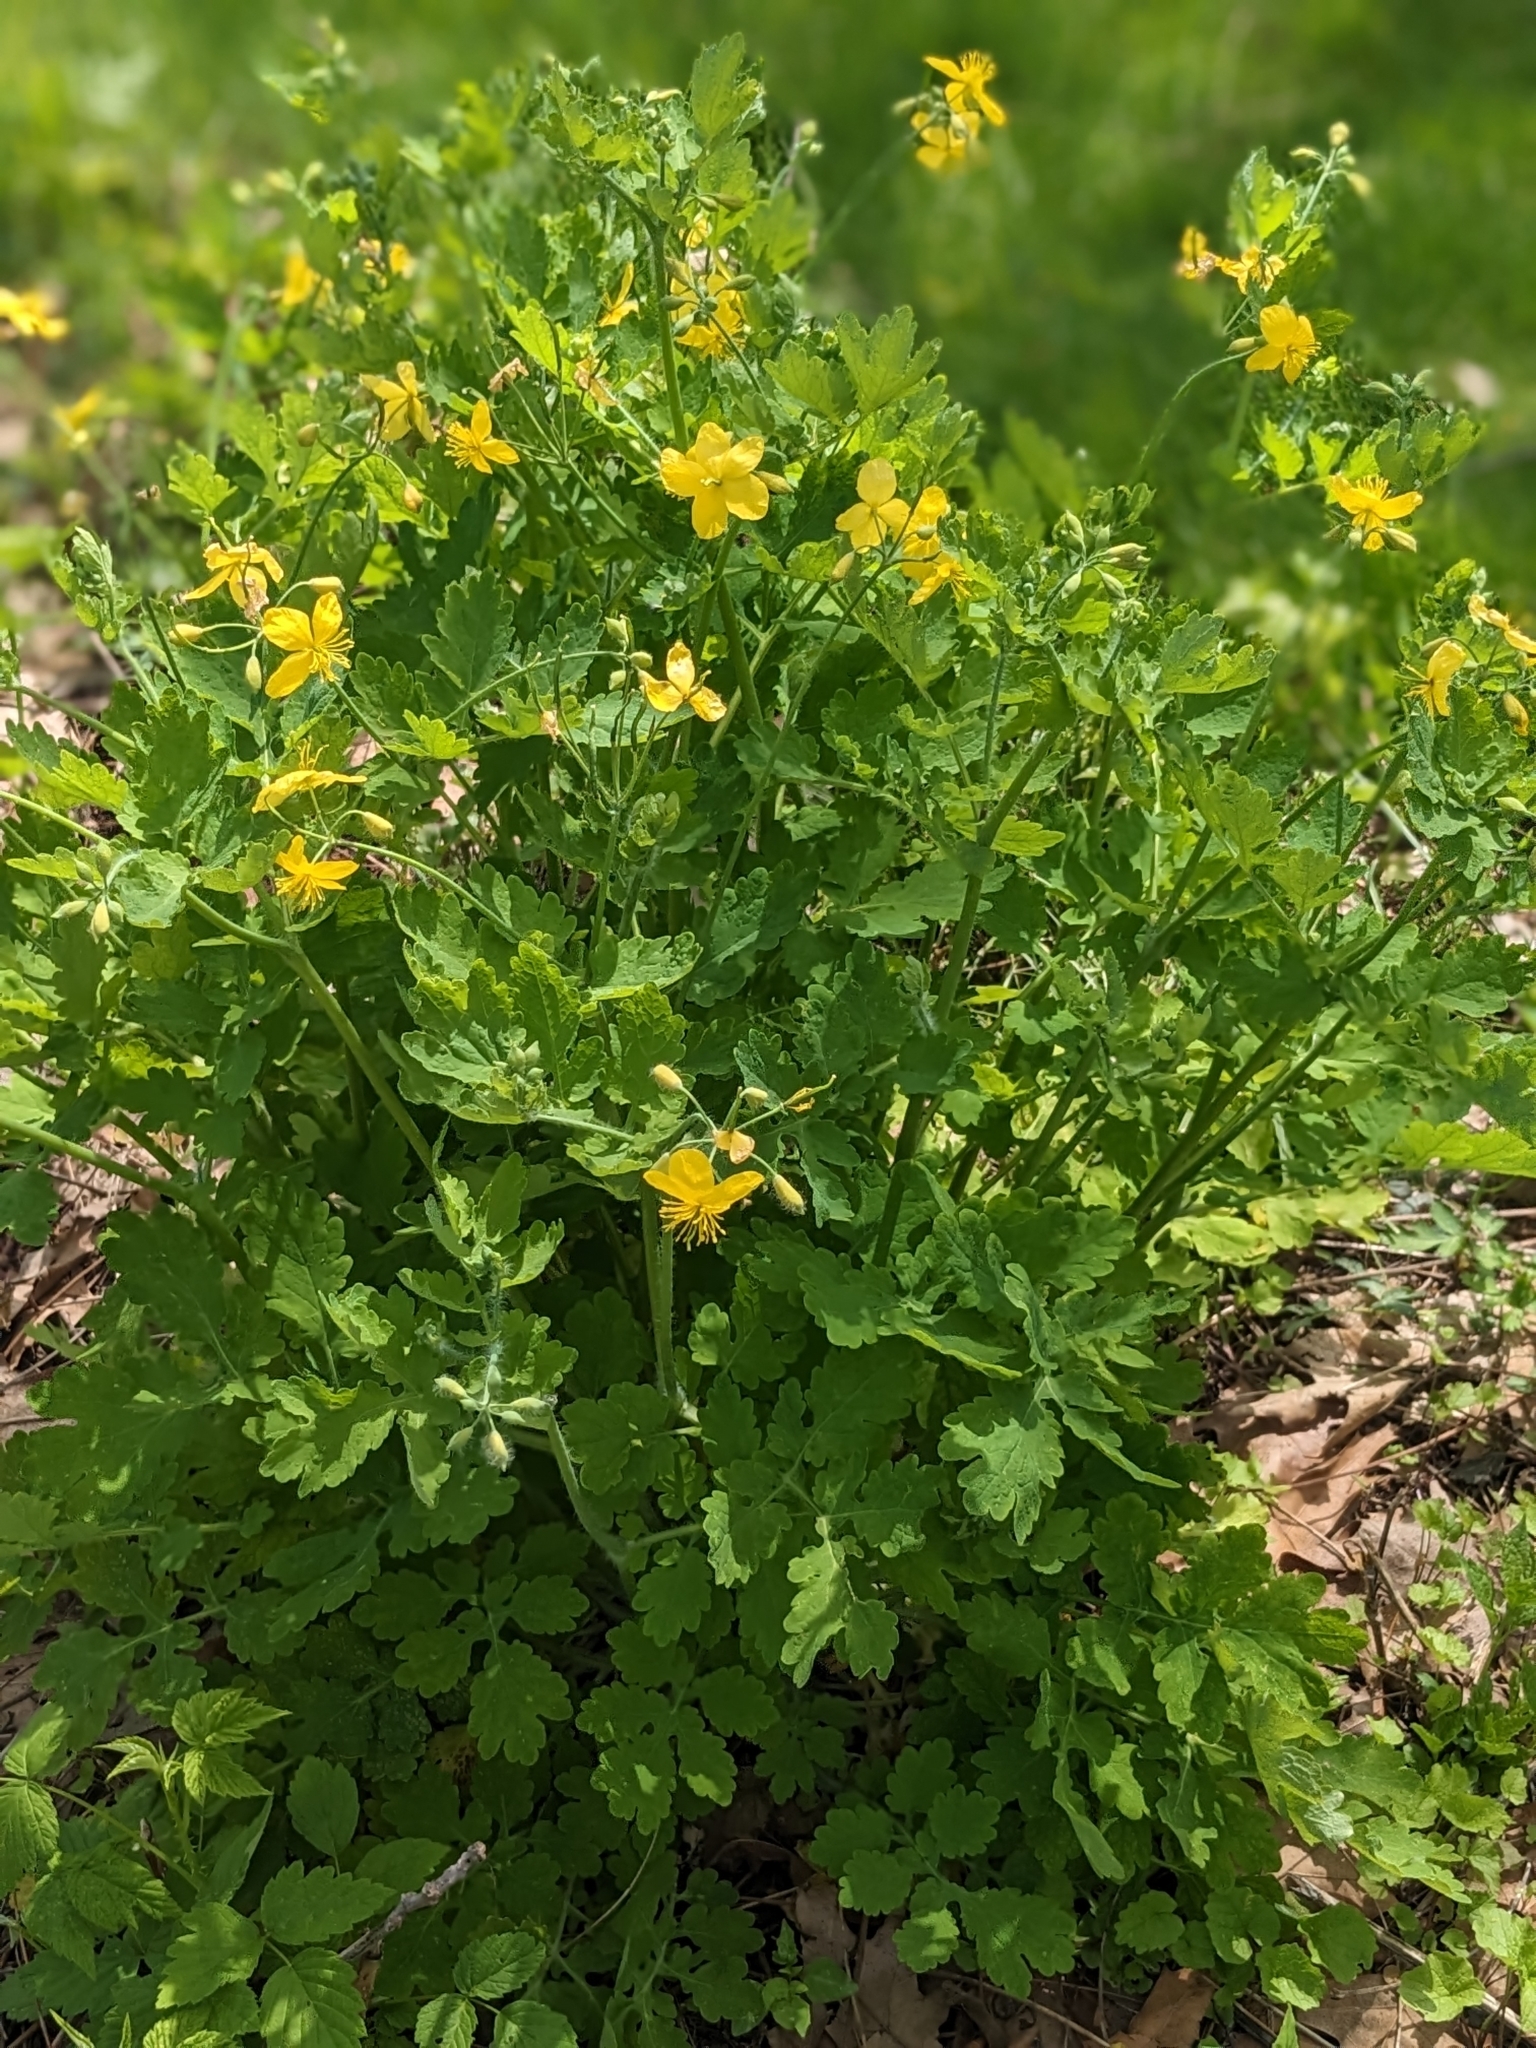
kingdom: Plantae
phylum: Tracheophyta
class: Magnoliopsida
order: Ranunculales
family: Papaveraceae
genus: Chelidonium
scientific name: Chelidonium majus
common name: Greater celandine
